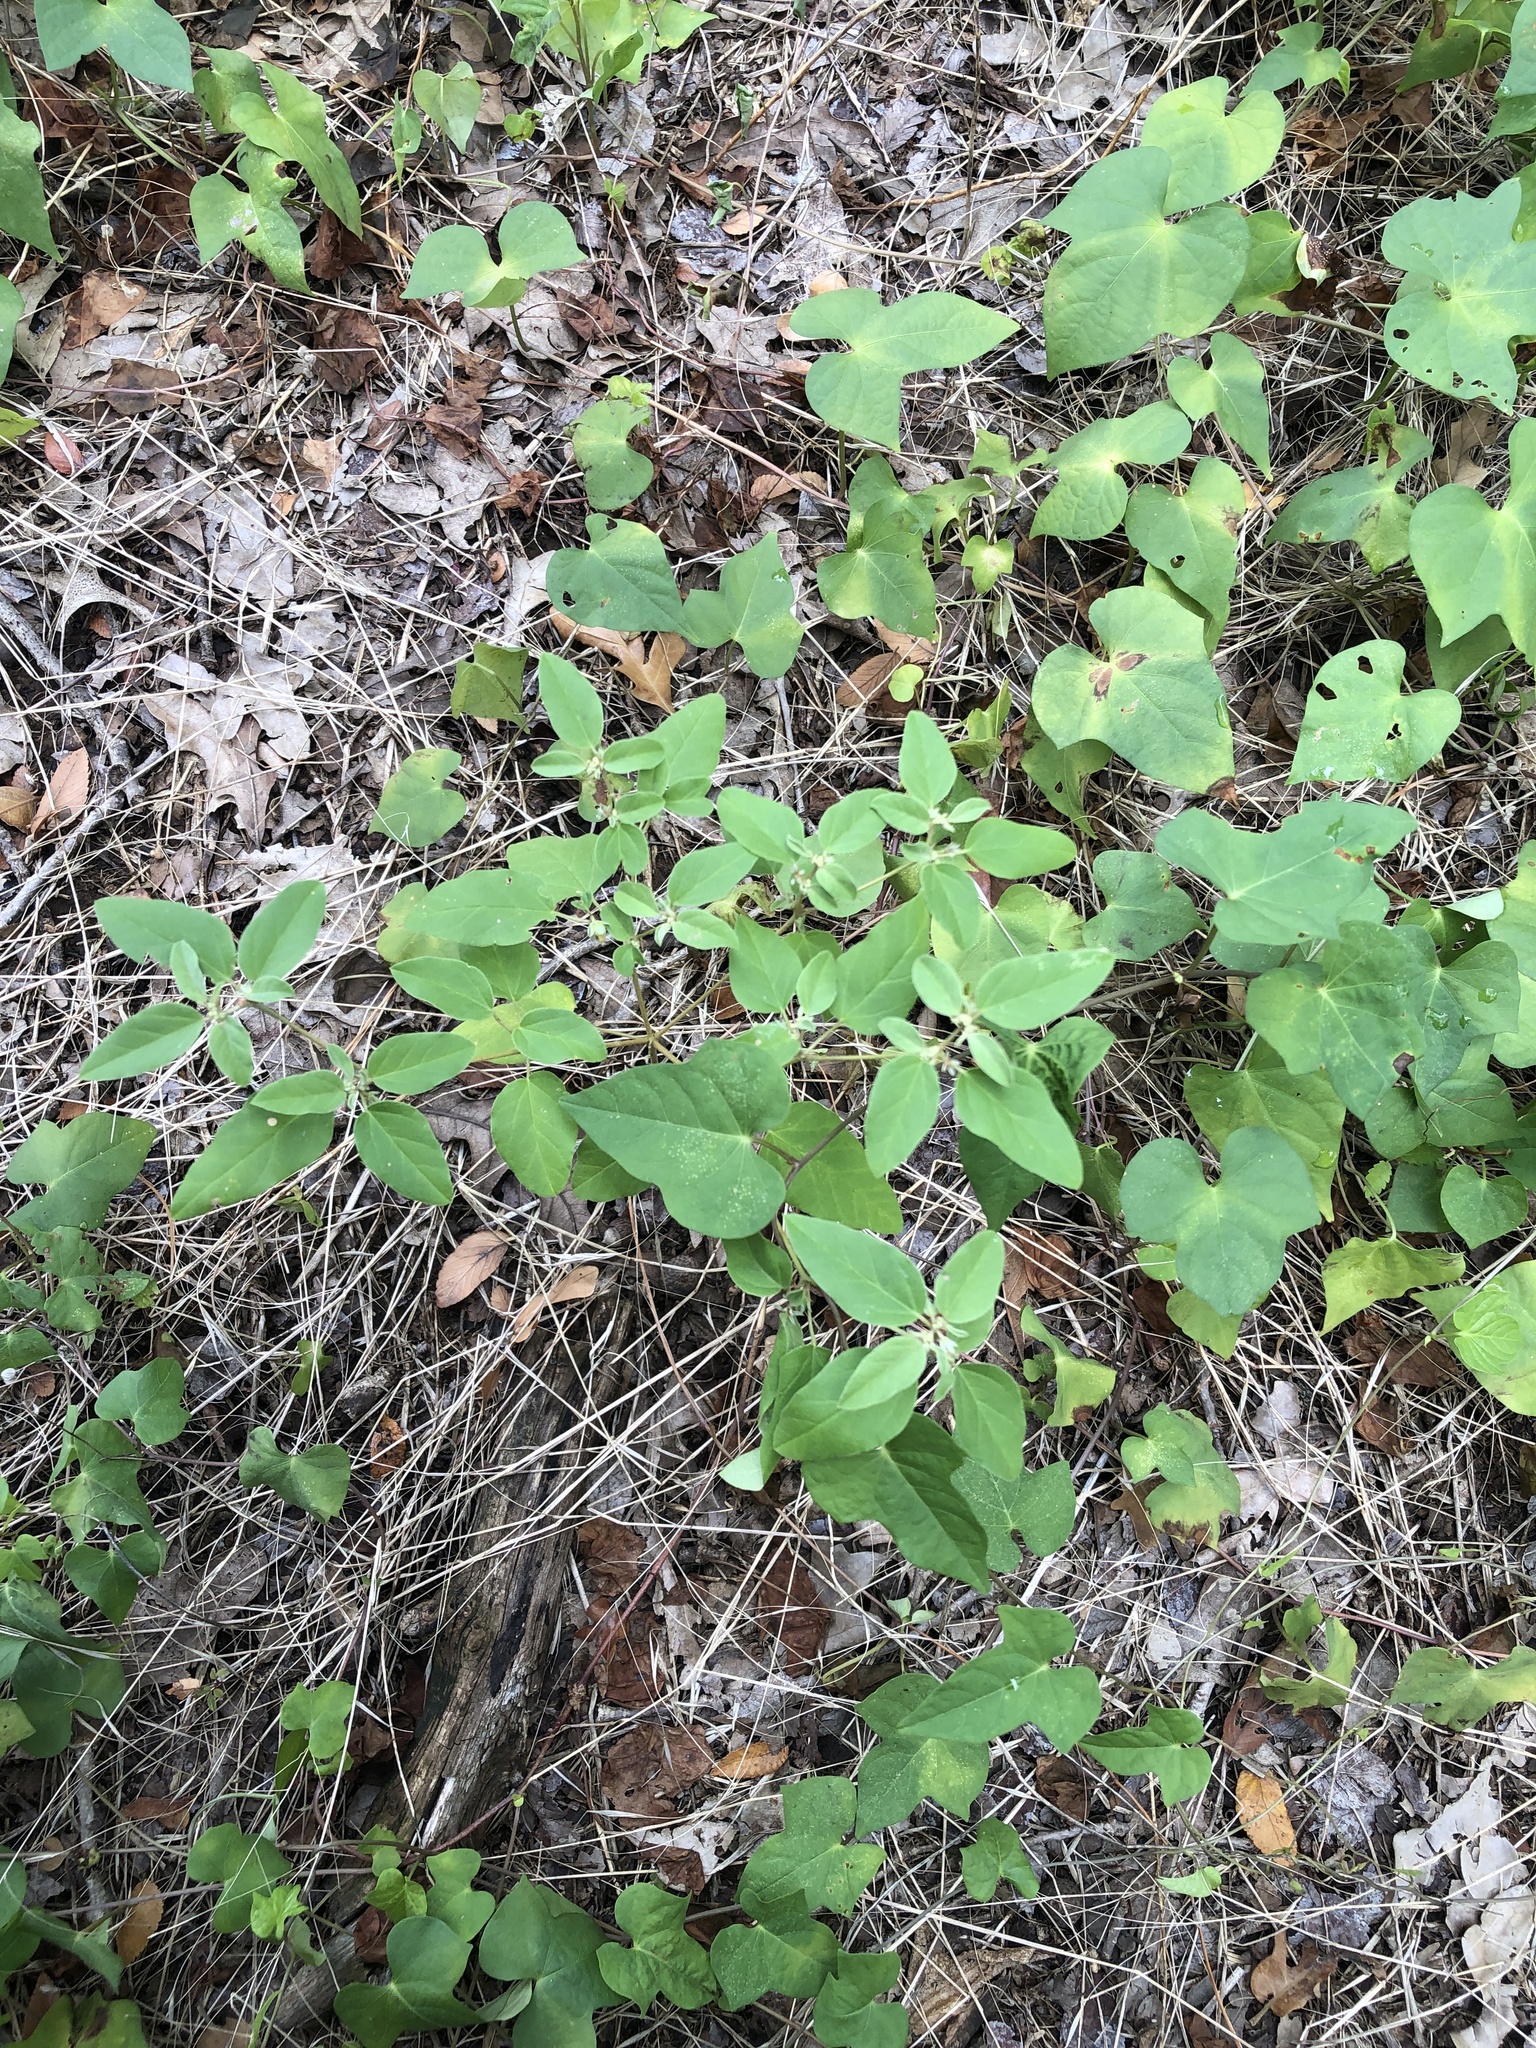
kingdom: Plantae
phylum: Tracheophyta
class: Magnoliopsida
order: Malpighiales
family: Euphorbiaceae
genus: Croton
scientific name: Croton monanthogynus
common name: One-seed croton
